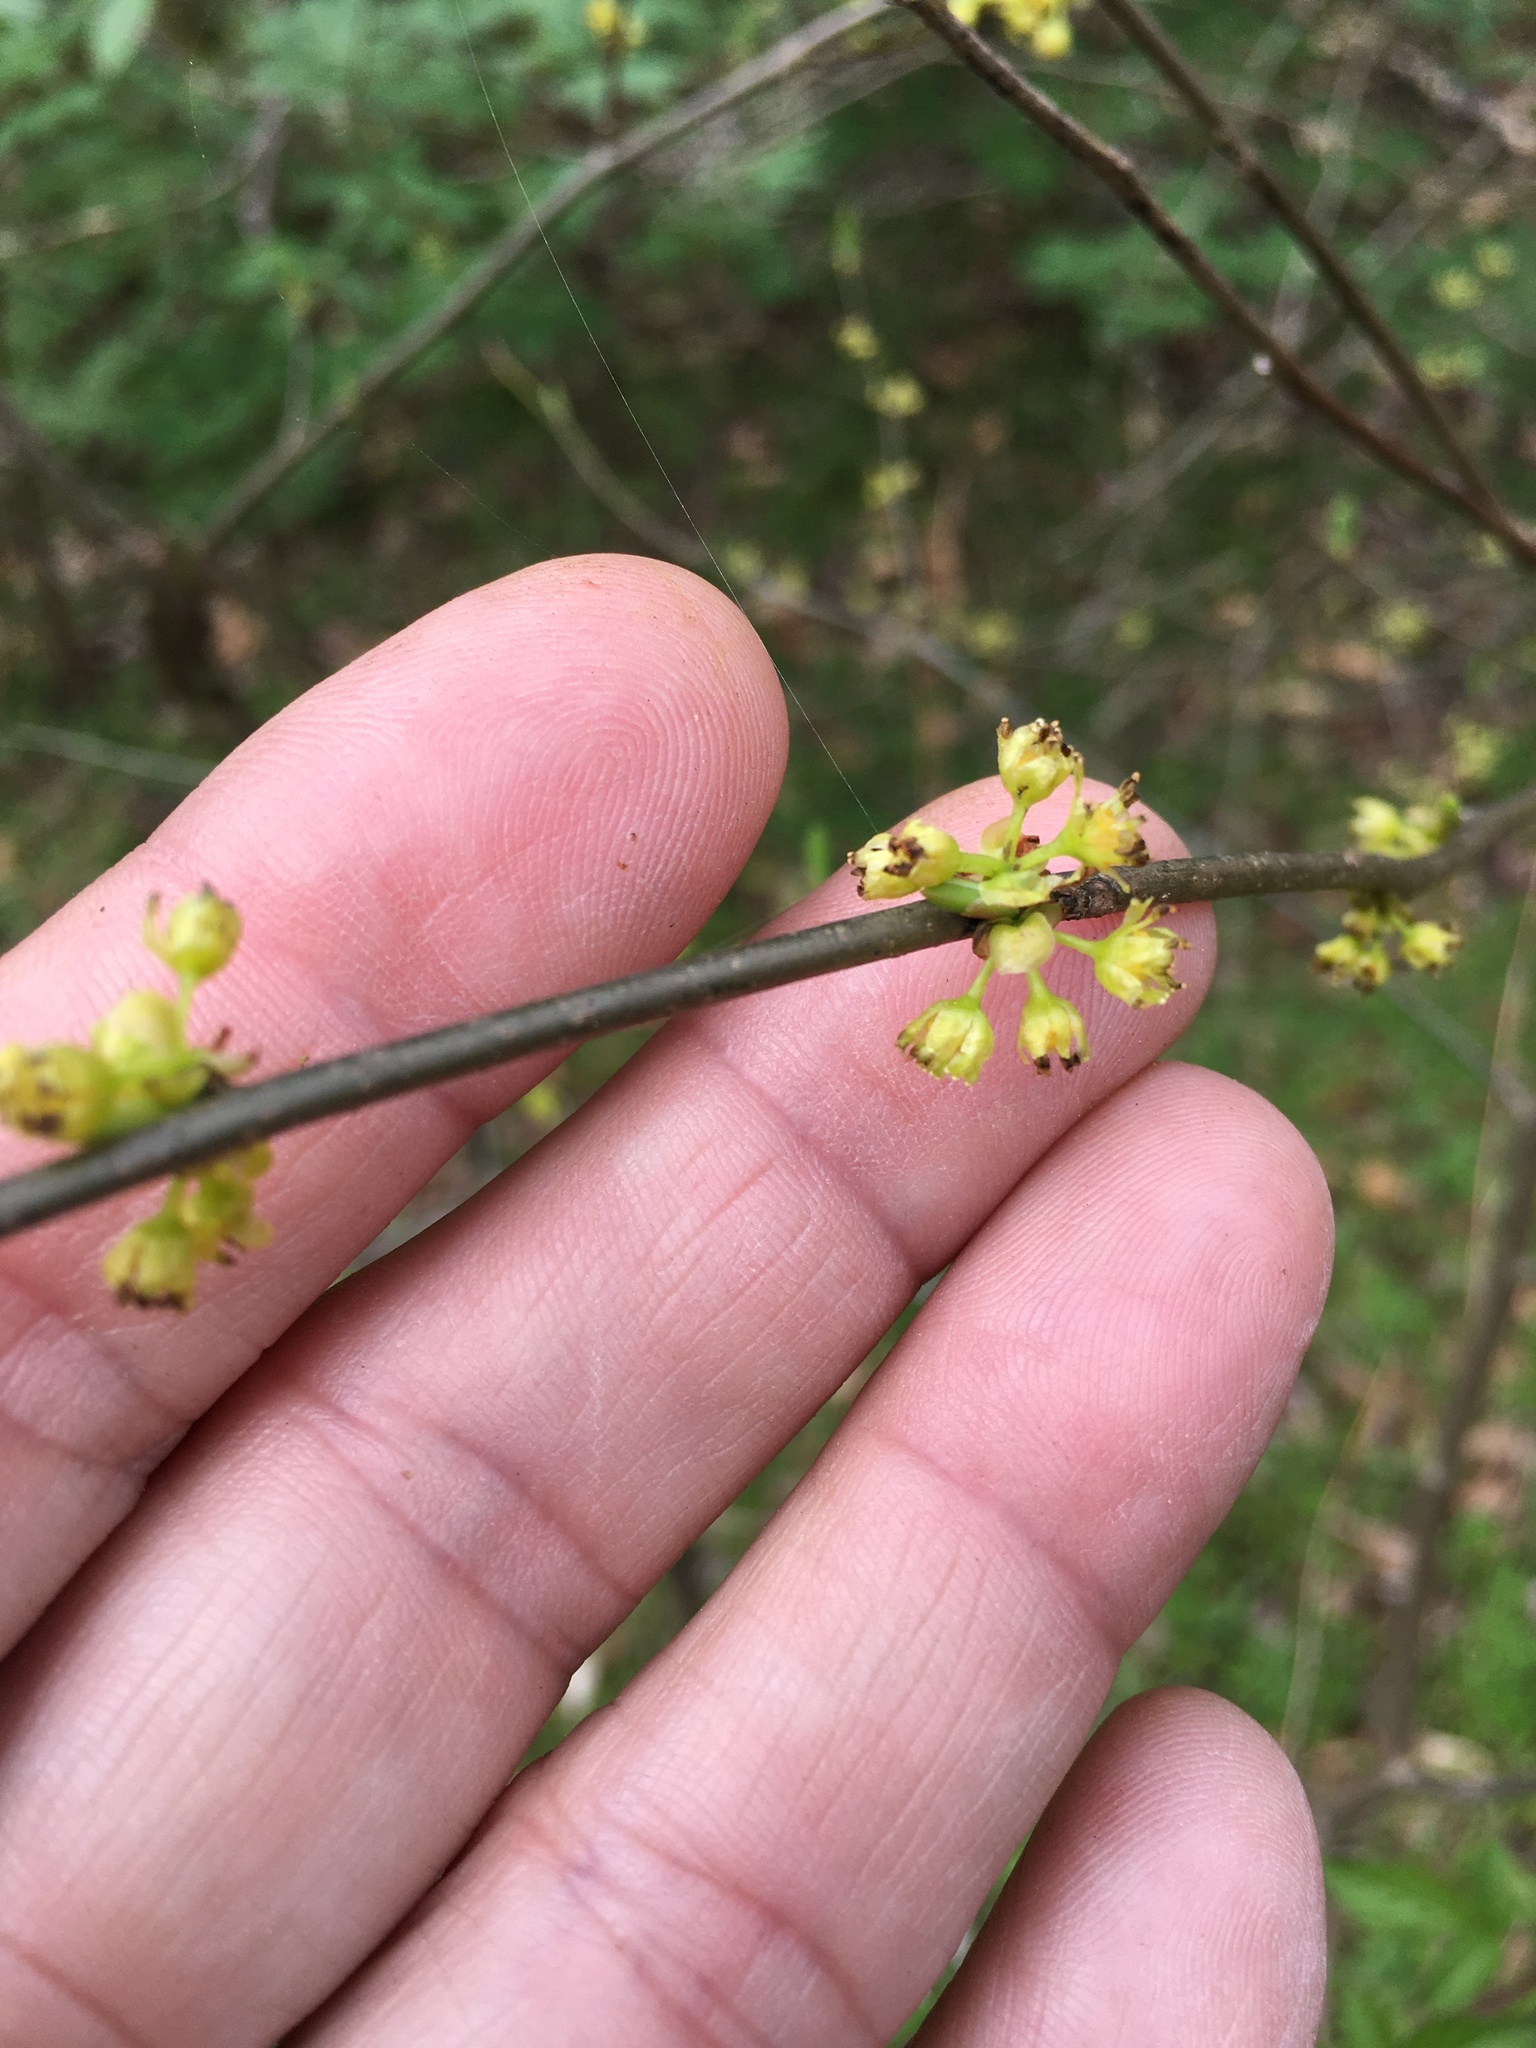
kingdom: Plantae
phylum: Tracheophyta
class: Magnoliopsida
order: Laurales
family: Lauraceae
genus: Lindera
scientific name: Lindera benzoin
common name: Spicebush
